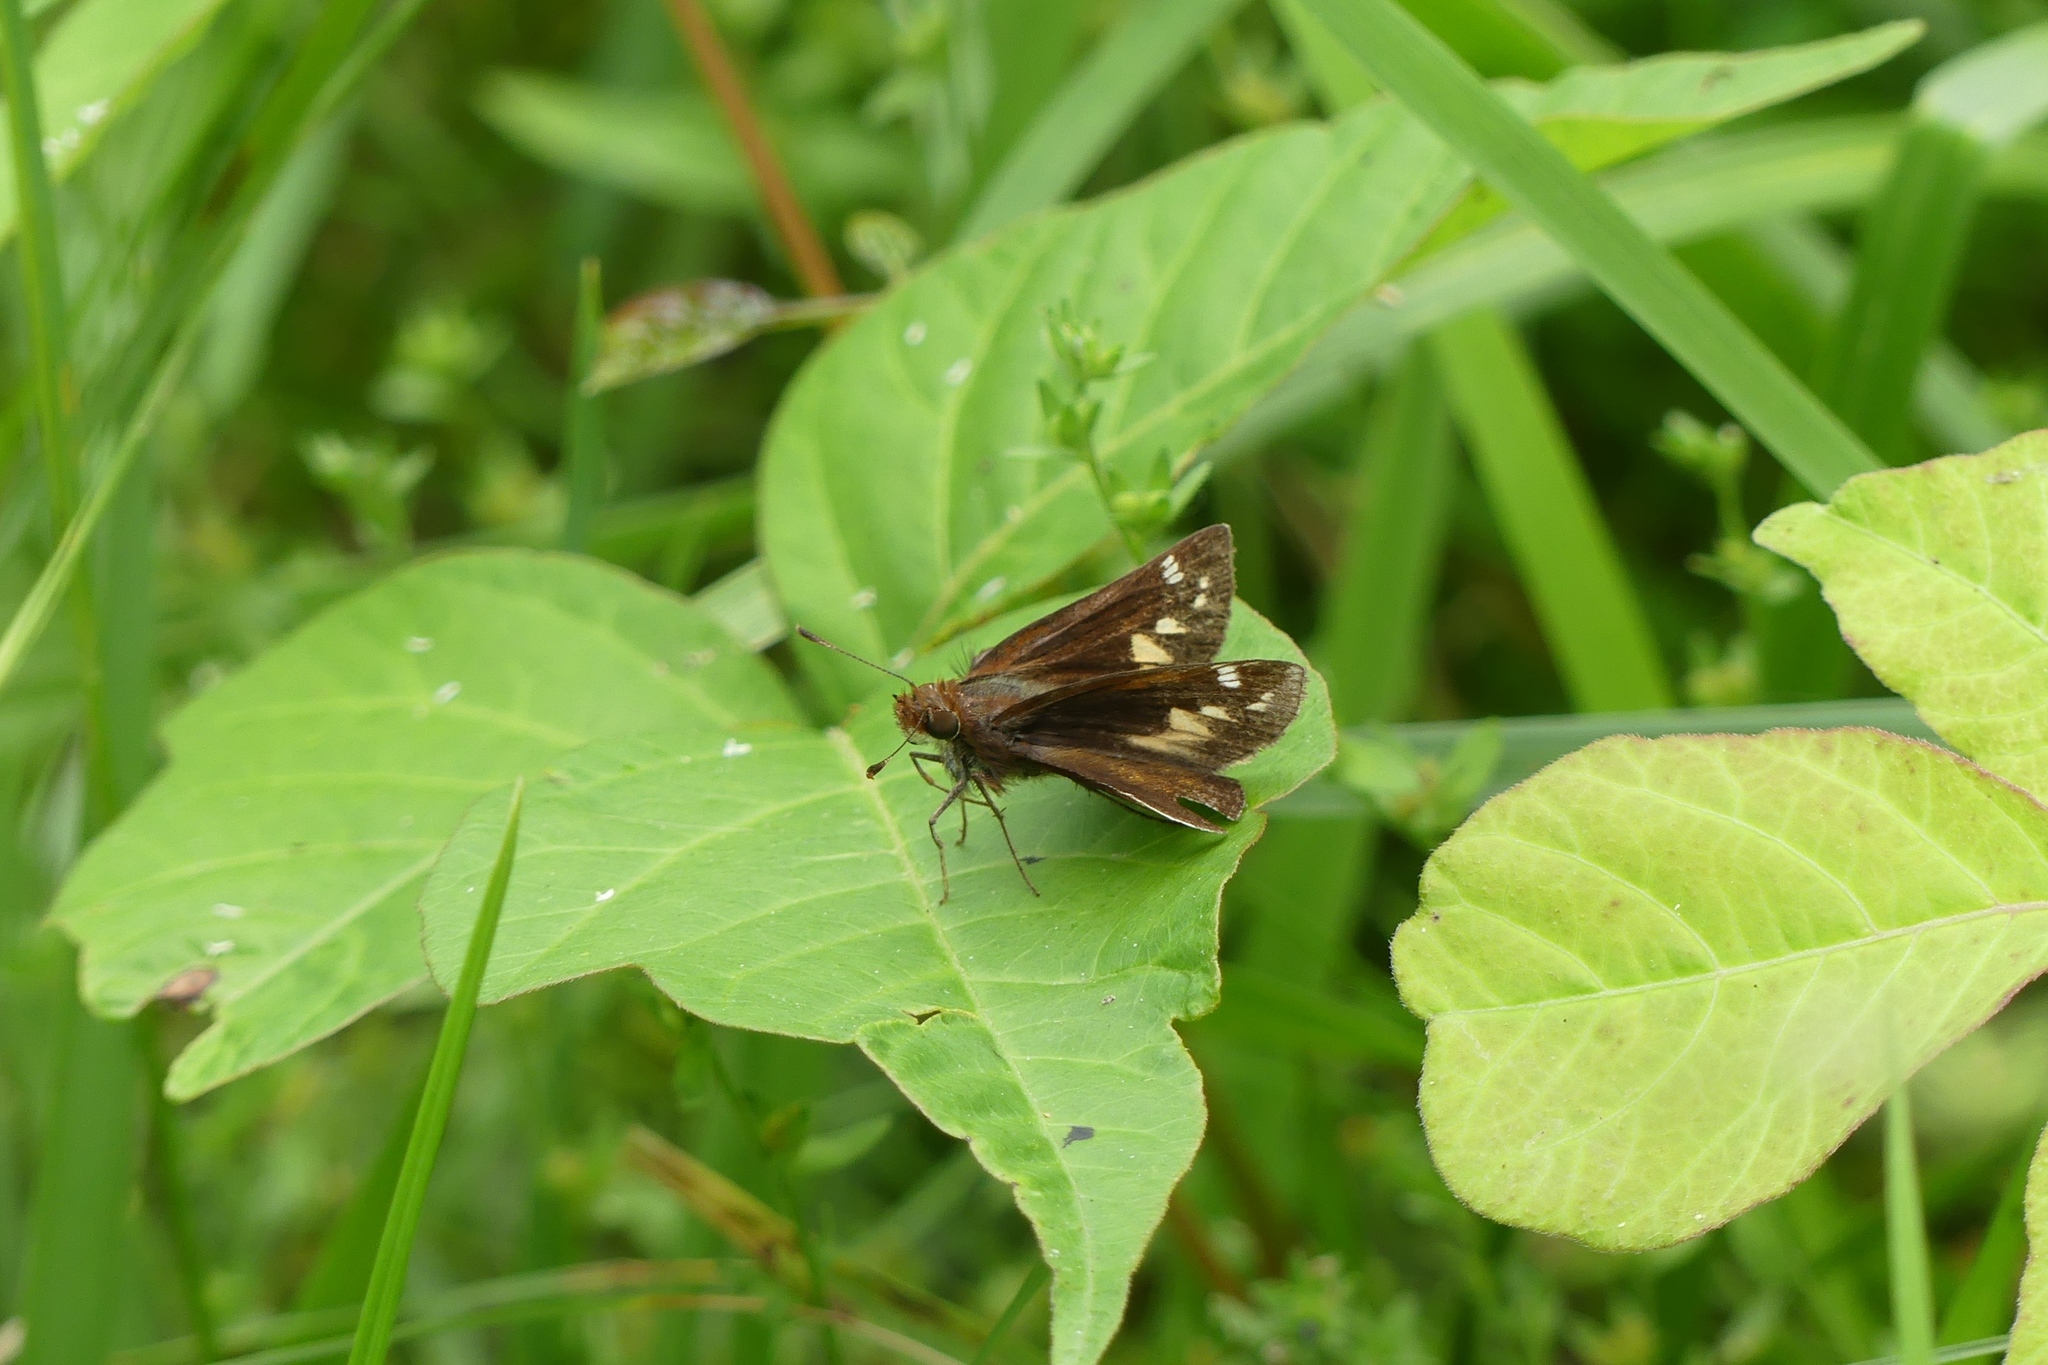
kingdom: Animalia
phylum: Arthropoda
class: Insecta
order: Lepidoptera
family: Hesperiidae
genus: Lon
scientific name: Lon zabulon
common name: Zabulon skipper
